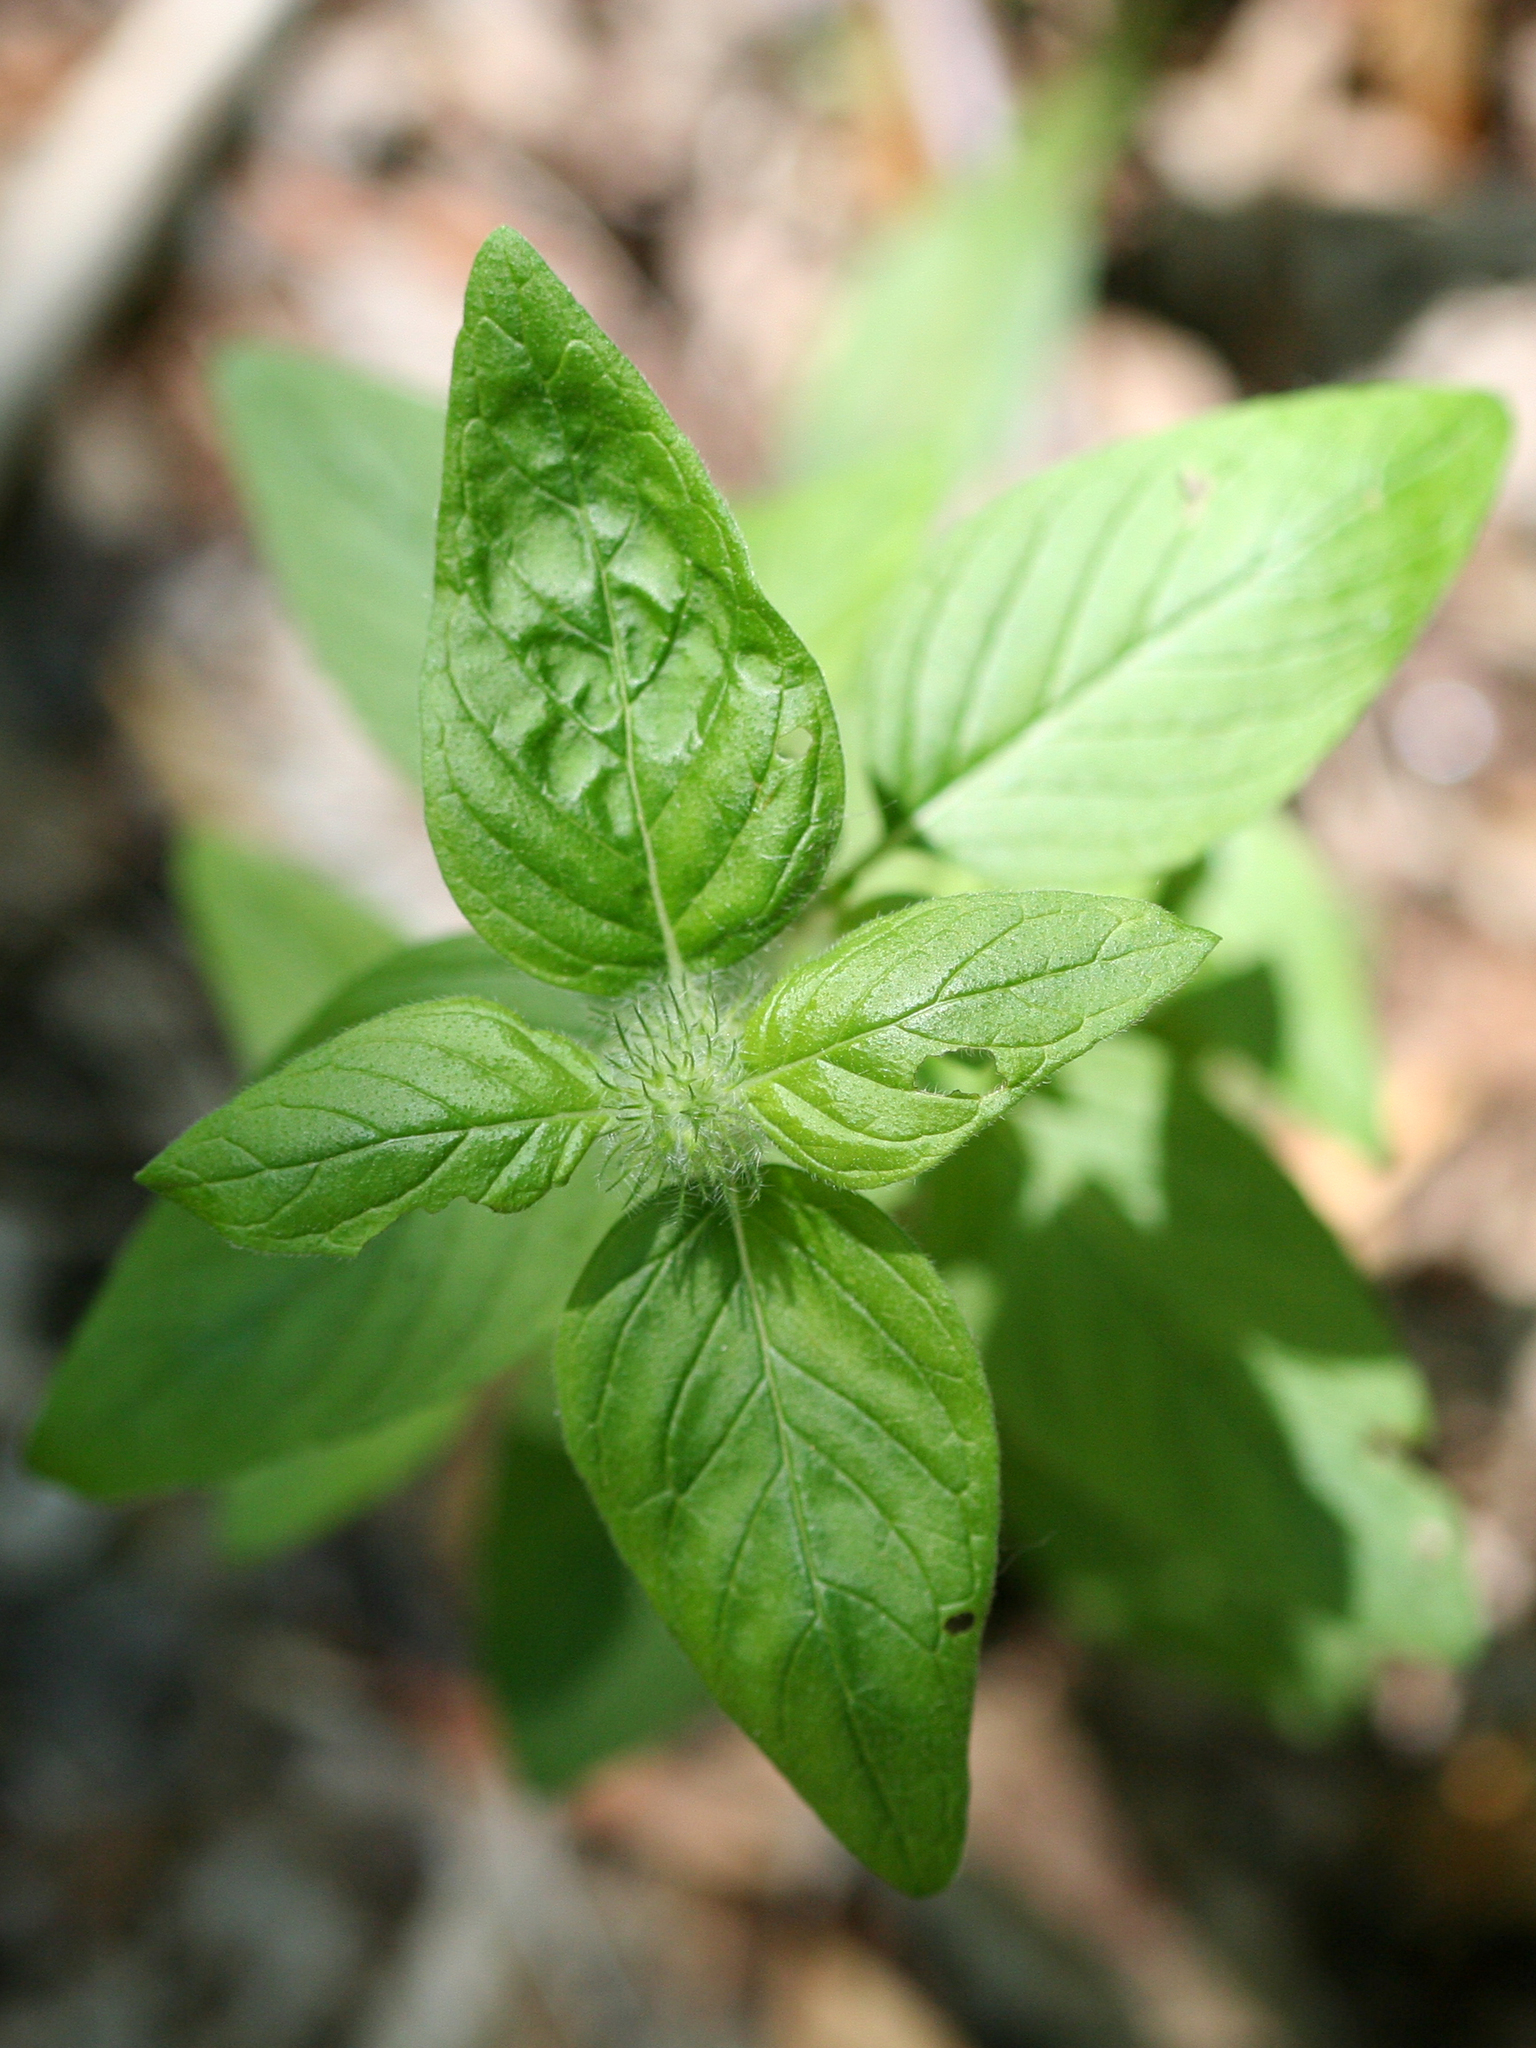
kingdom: Plantae
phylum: Tracheophyta
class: Magnoliopsida
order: Lamiales
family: Lamiaceae
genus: Clinopodium
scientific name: Clinopodium vulgare
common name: Wild basil
